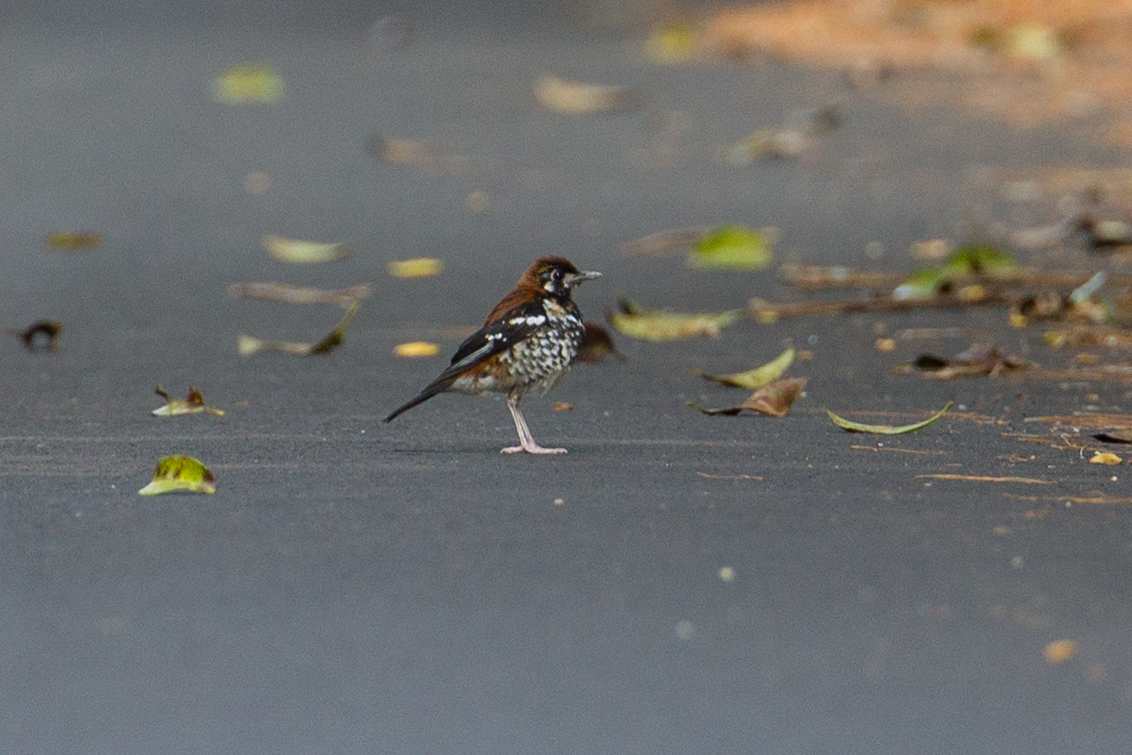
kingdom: Animalia
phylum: Chordata
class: Aves
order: Passeriformes
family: Turdidae
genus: Geokichla
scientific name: Geokichla erythronota
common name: Red-backed thrush
